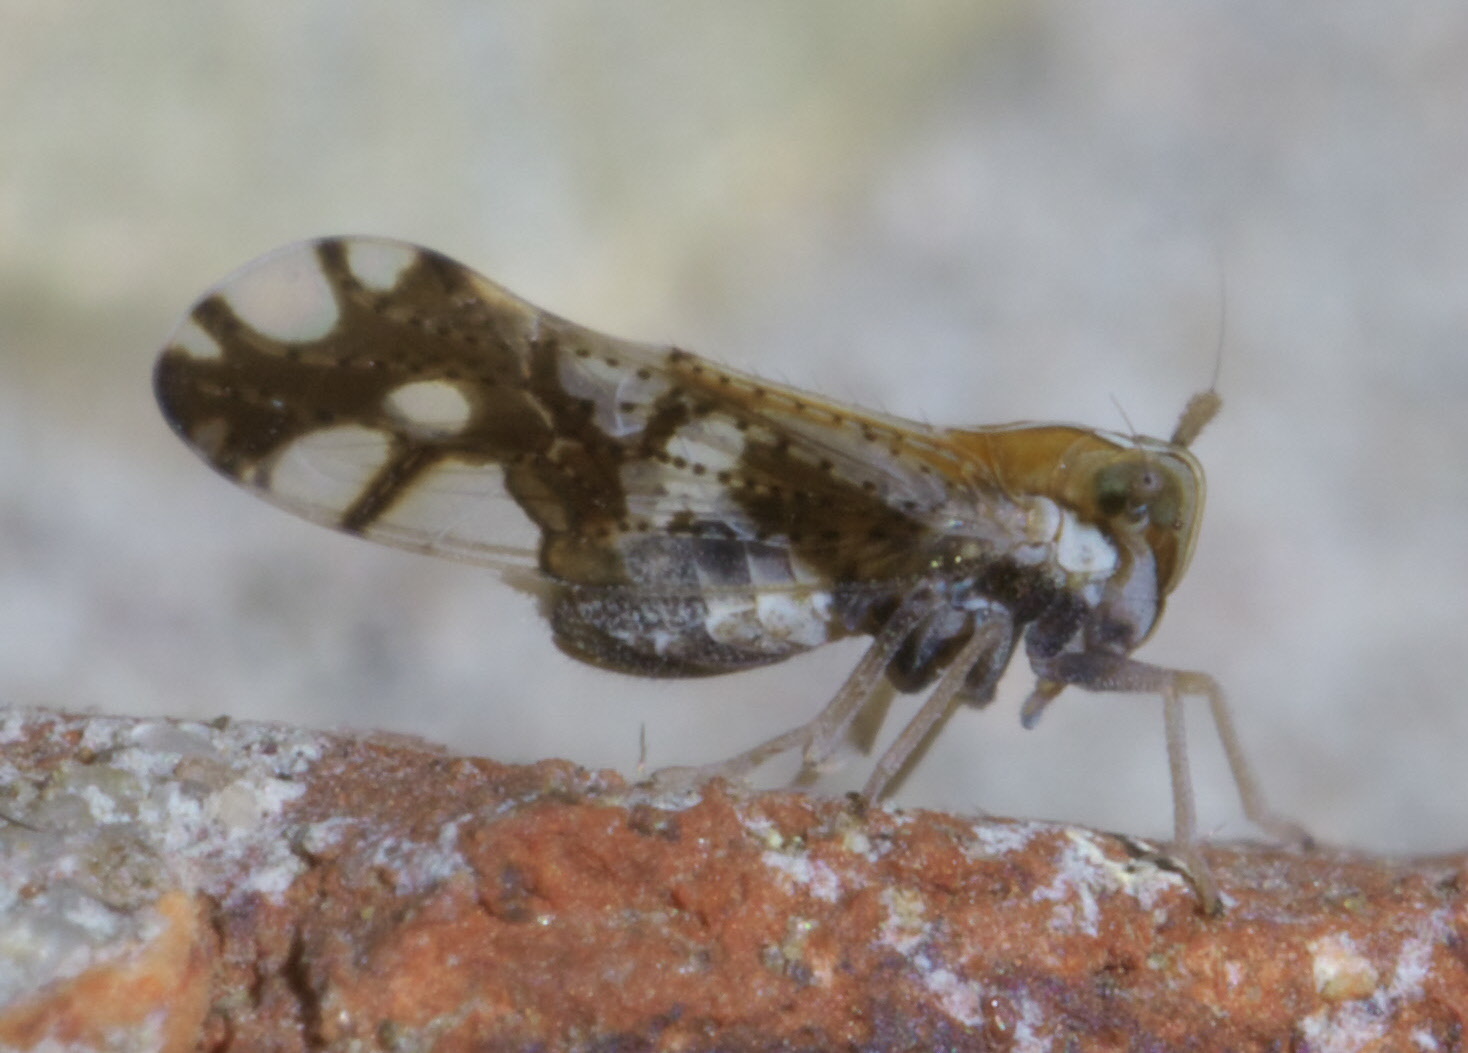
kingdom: Animalia
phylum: Arthropoda
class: Insecta
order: Hemiptera
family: Delphacidae
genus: Liburniella
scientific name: Liburniella ornata
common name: Ornate planthopper
